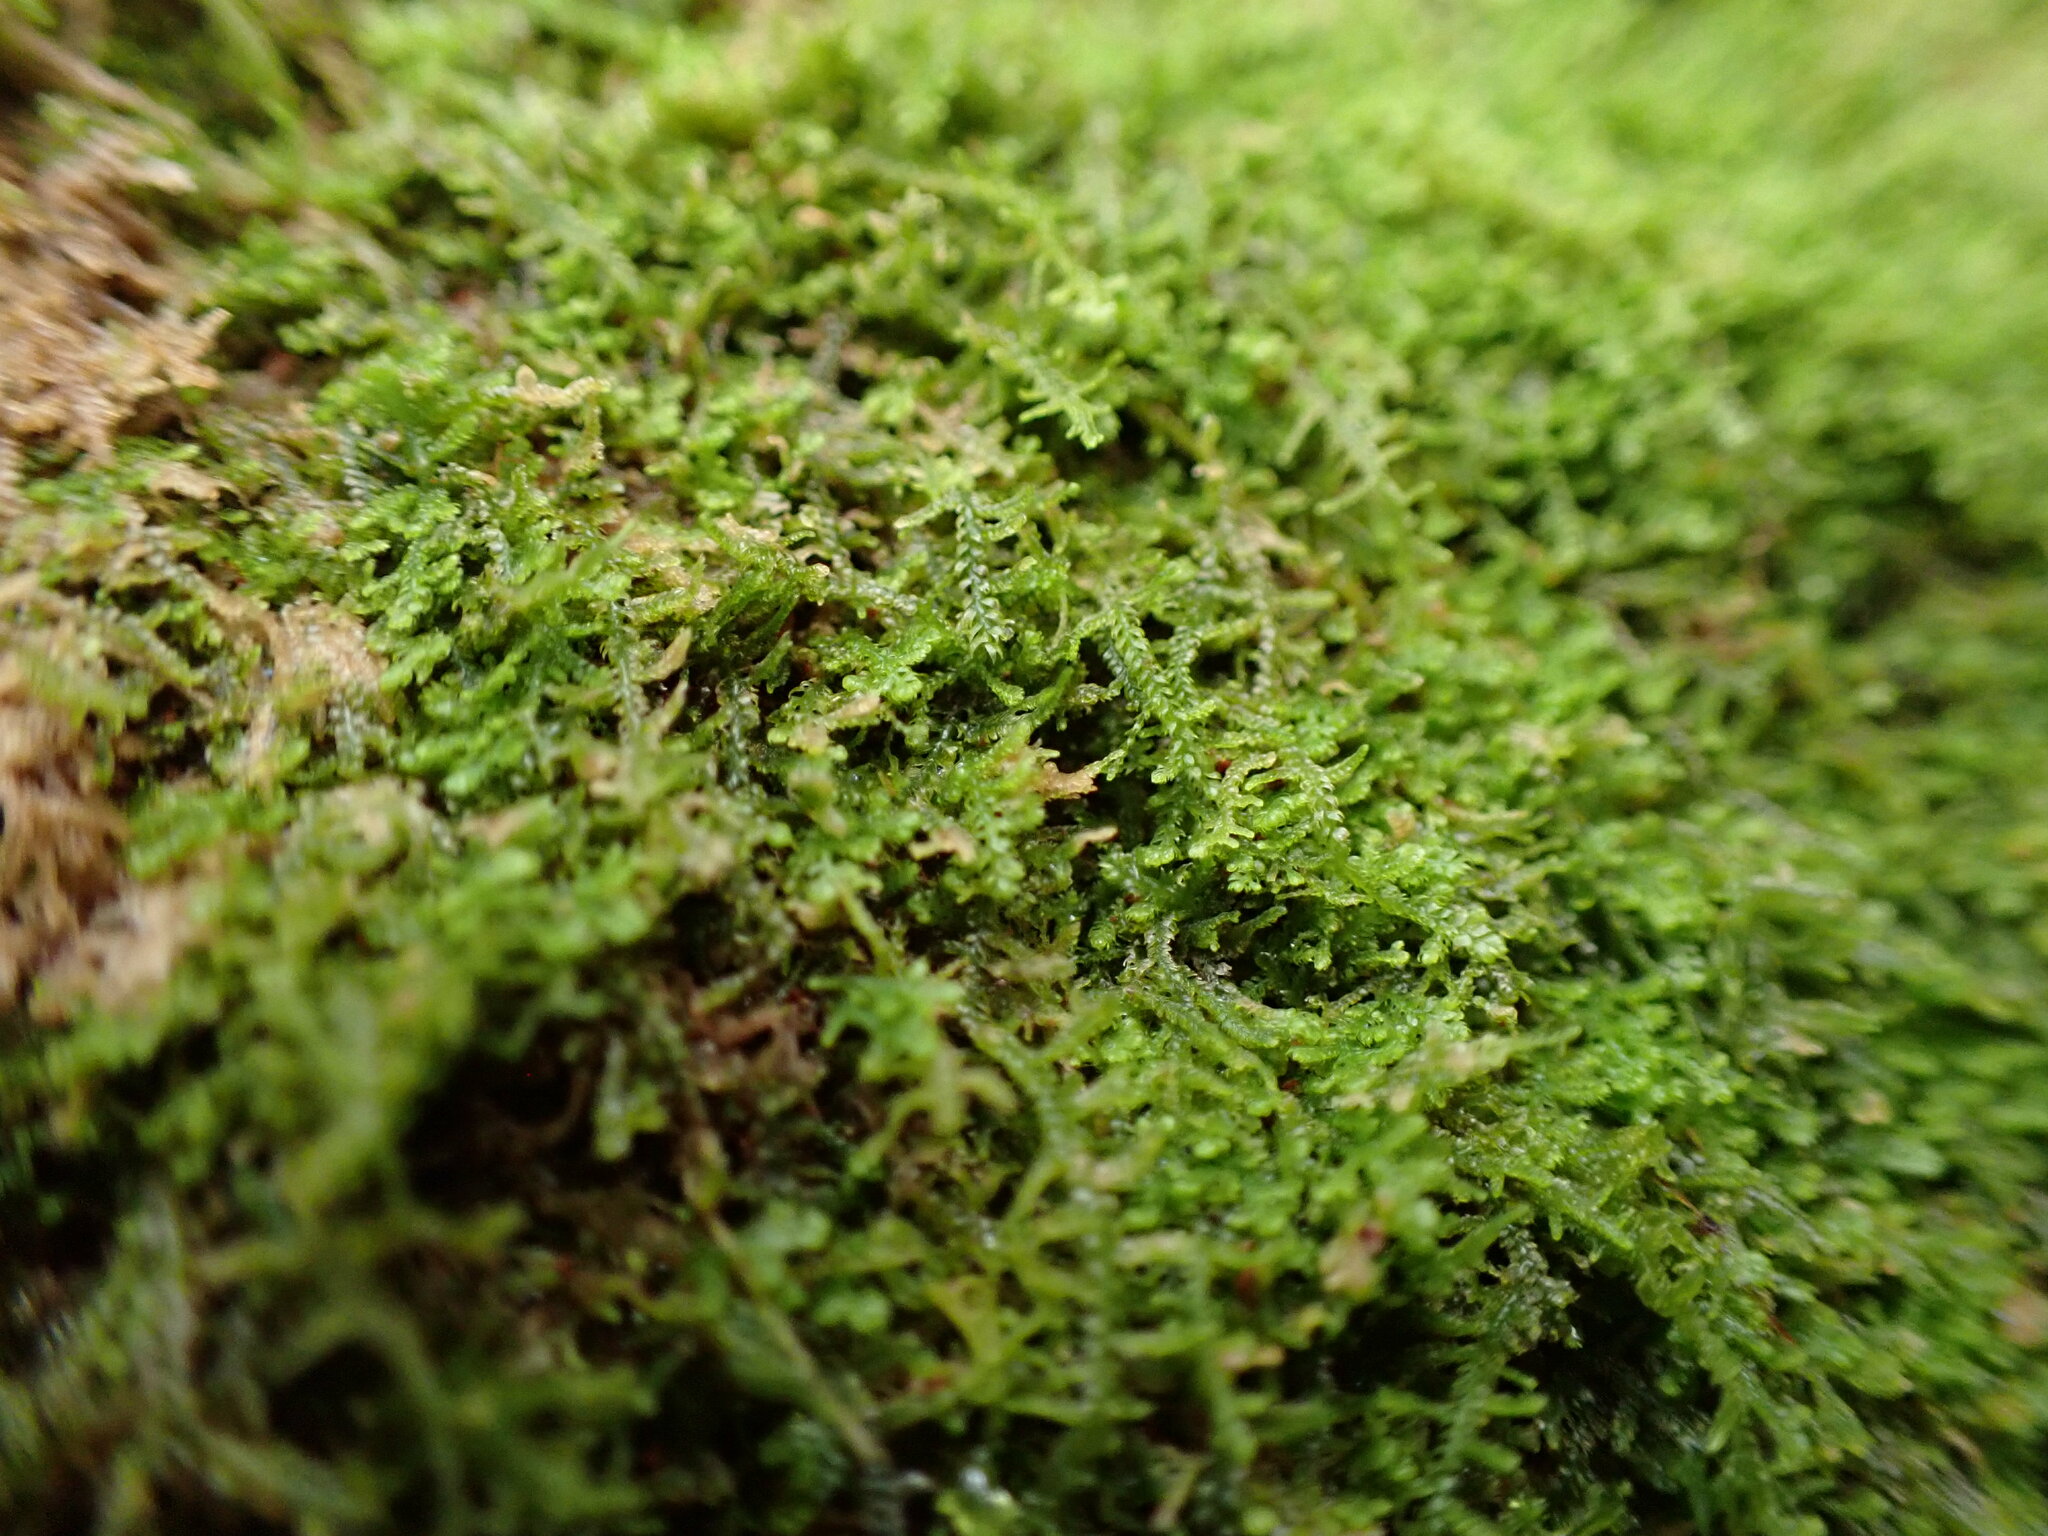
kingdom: Plantae
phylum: Marchantiophyta
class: Jungermanniopsida
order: Jungermanniales
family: Lepidoziaceae
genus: Lepidozia
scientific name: Lepidozia reptans
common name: Creeping fingerwort
